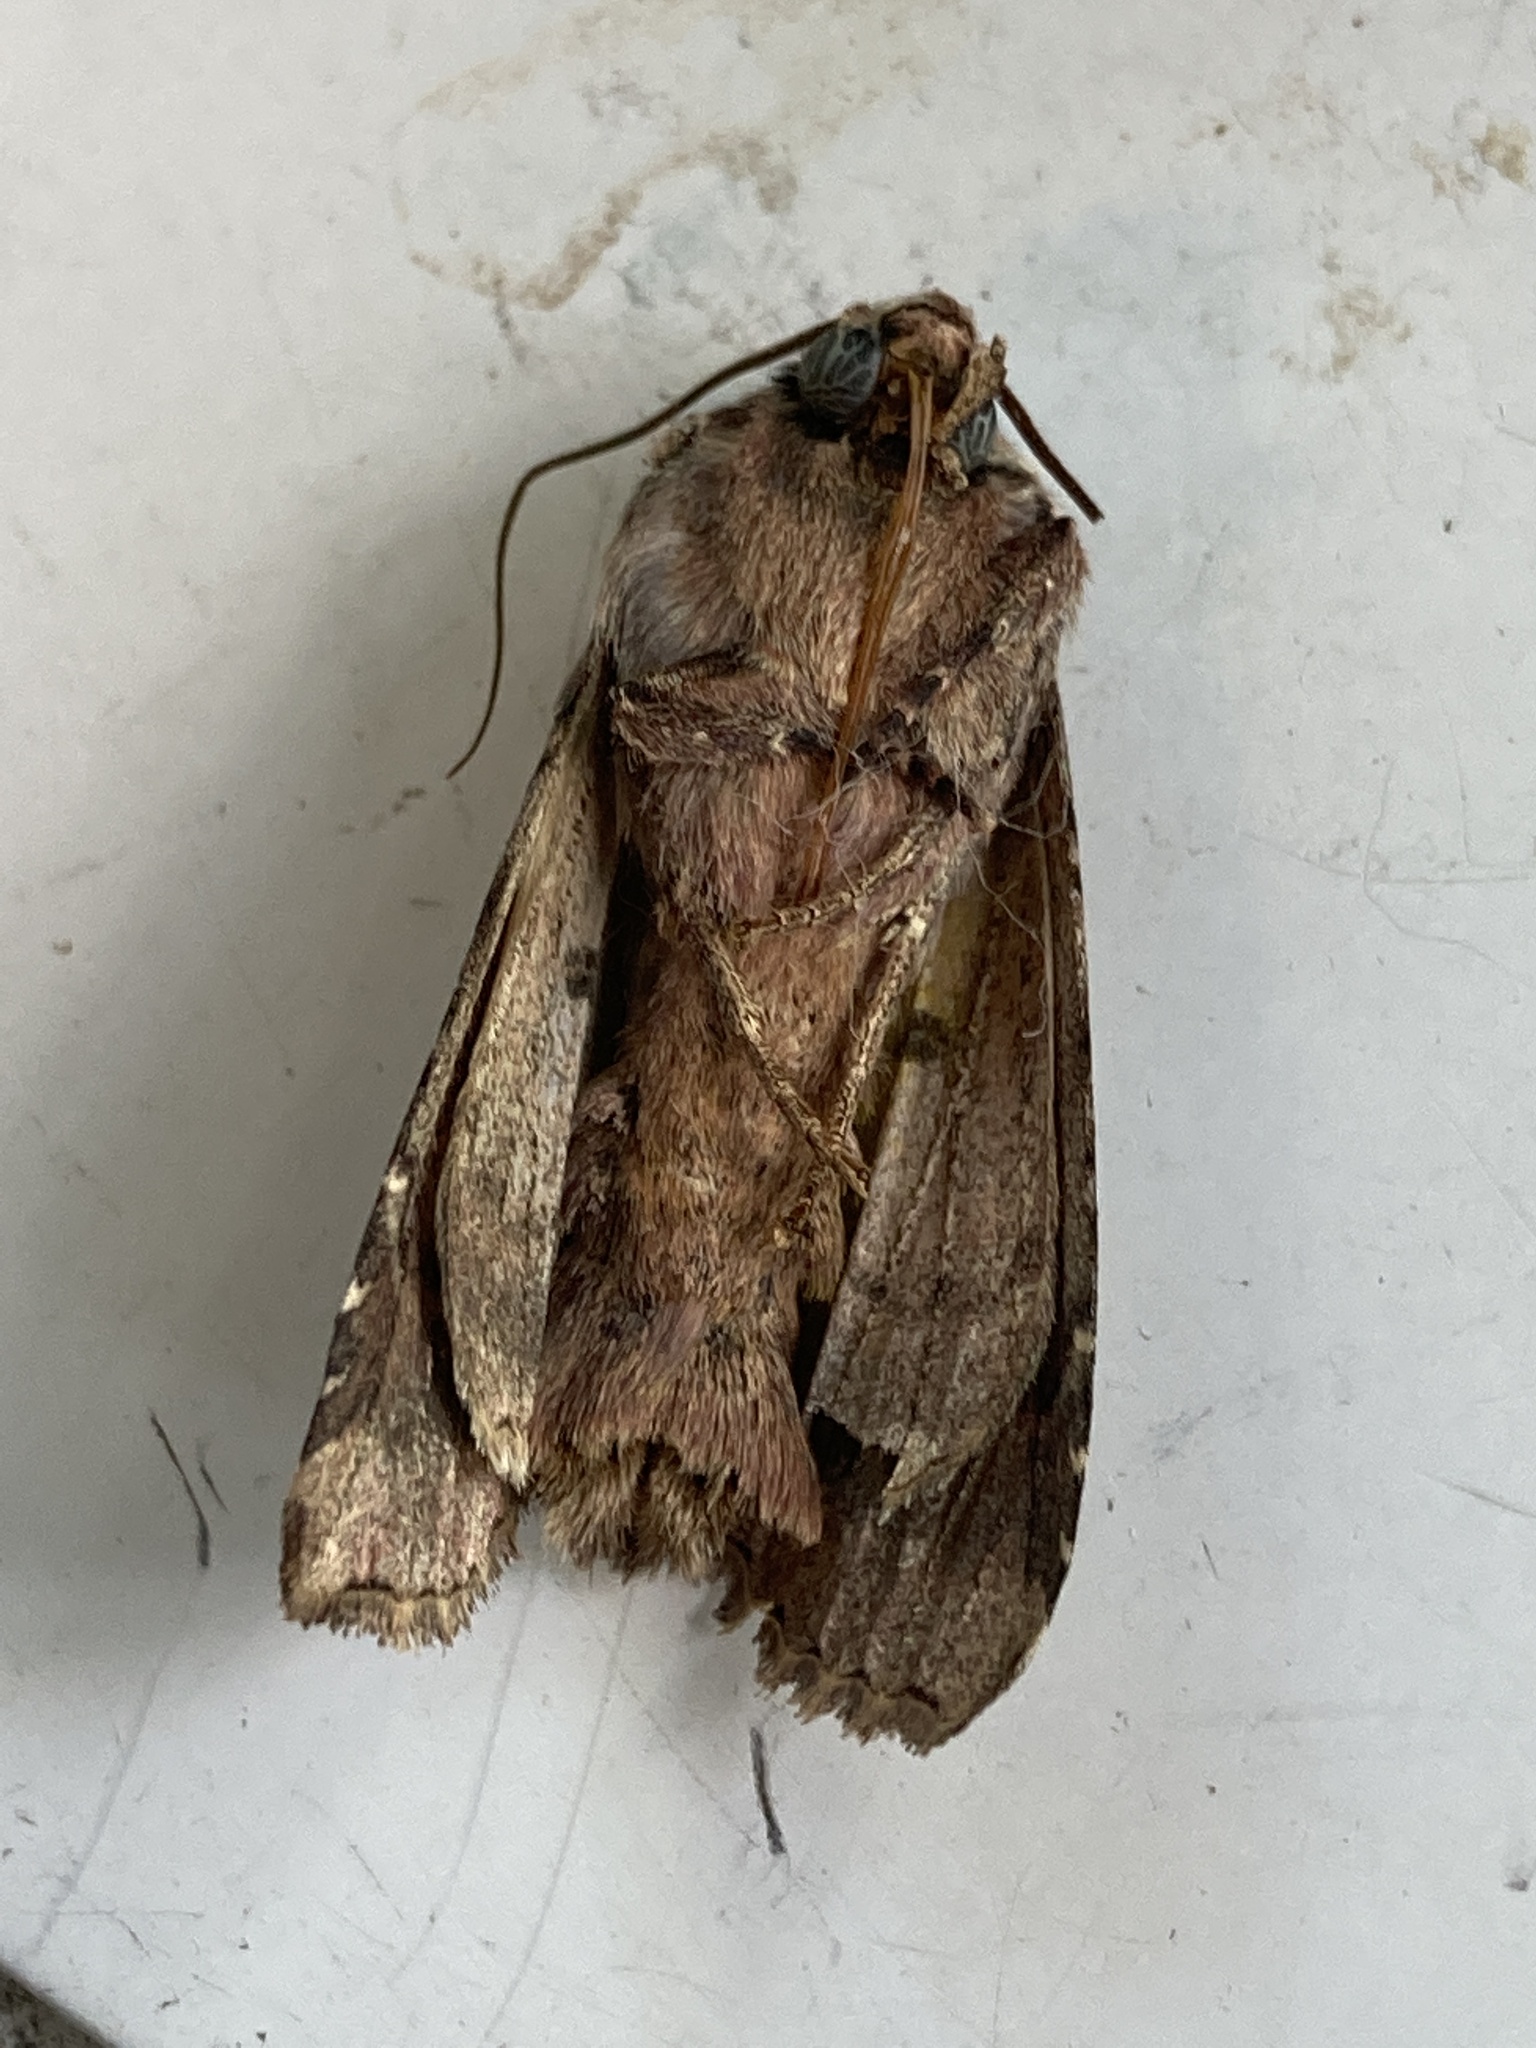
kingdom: Animalia
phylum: Arthropoda
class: Insecta
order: Lepidoptera
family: Noctuidae
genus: Apamea
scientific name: Apamea monoglypha
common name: Dark arches
